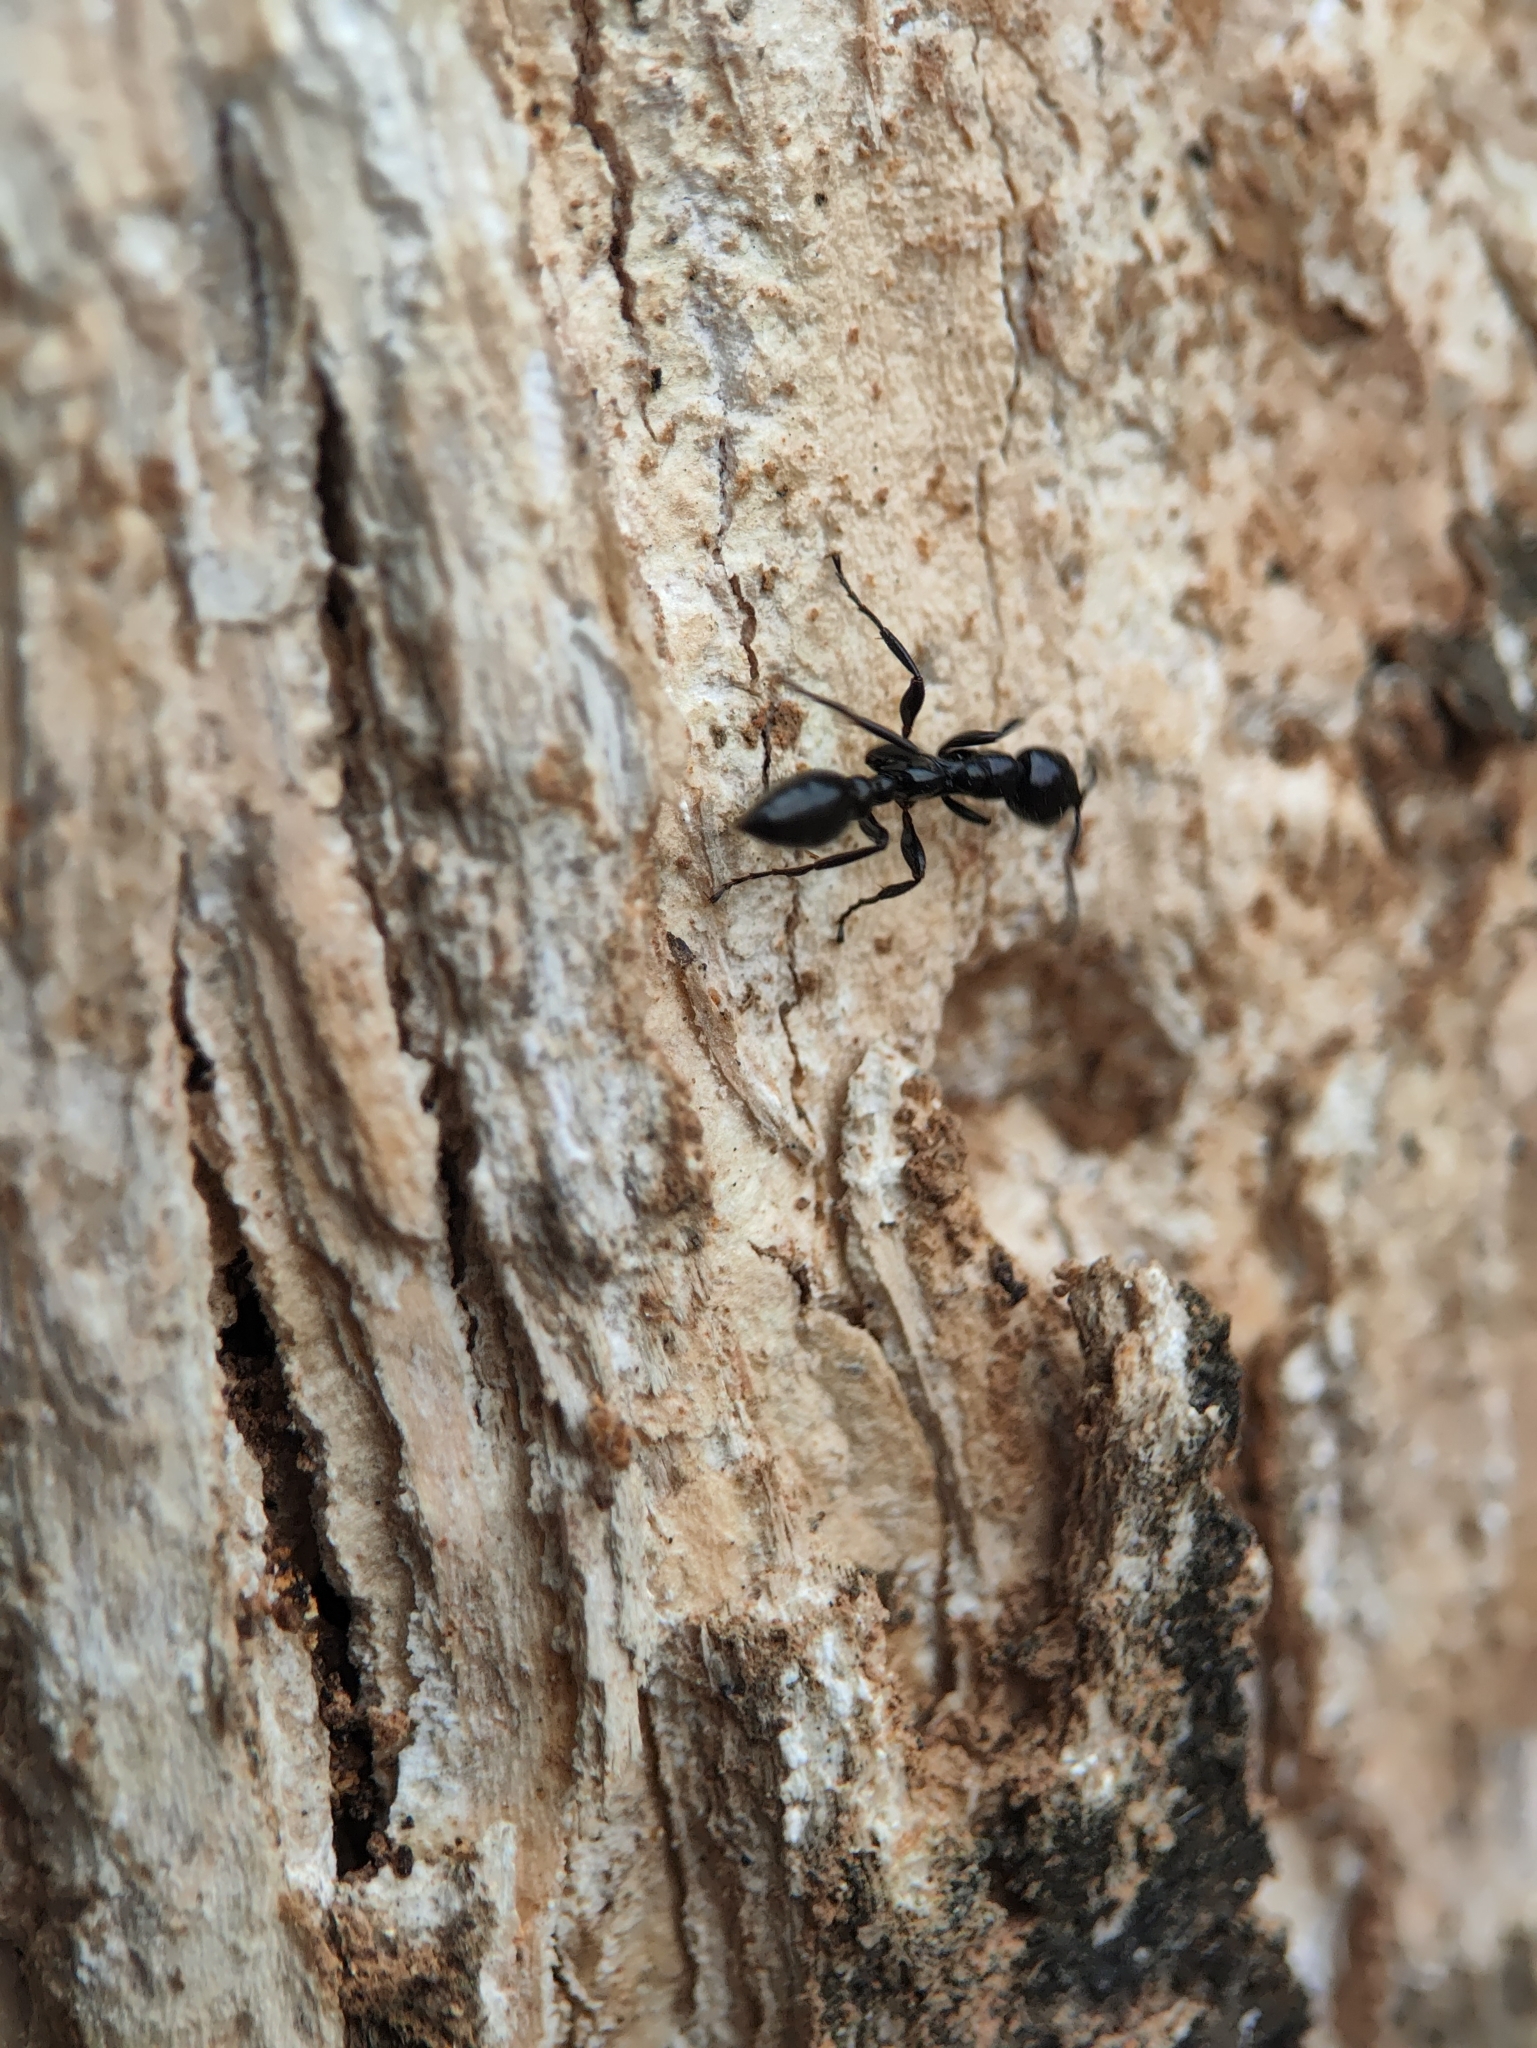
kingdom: Animalia
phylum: Arthropoda
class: Insecta
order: Hymenoptera
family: Formicidae
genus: Tetraponera
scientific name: Tetraponera nigra
